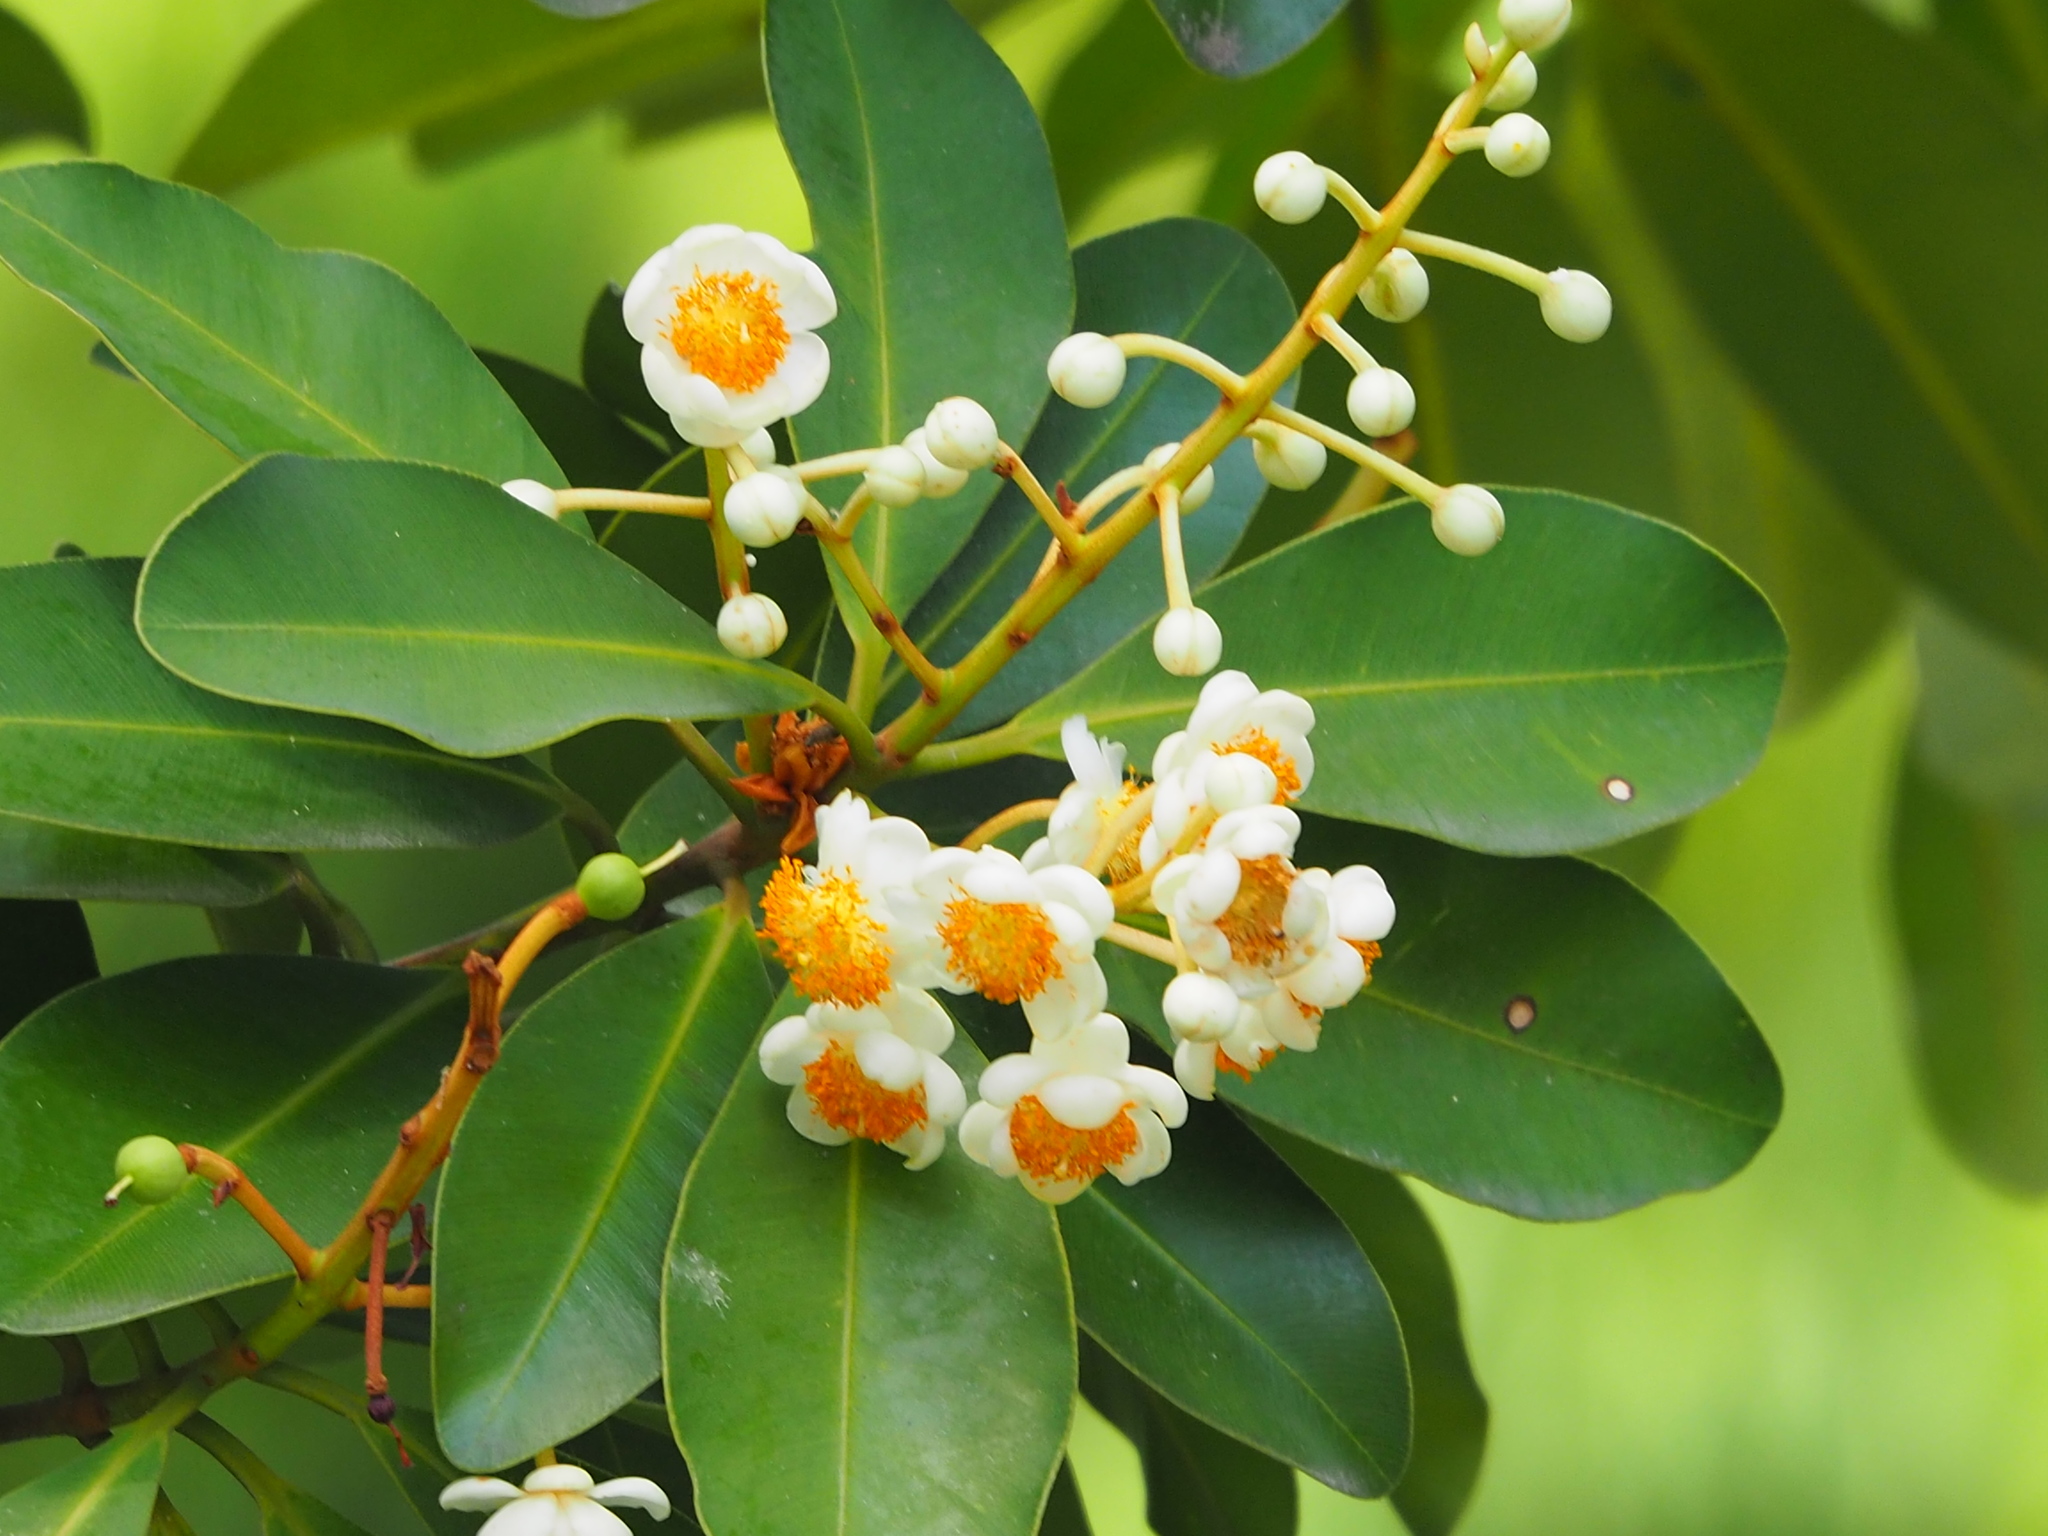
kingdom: Plantae
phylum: Tracheophyta
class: Magnoliopsida
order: Malpighiales
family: Calophyllaceae
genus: Calophyllum
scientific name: Calophyllum blancoi
